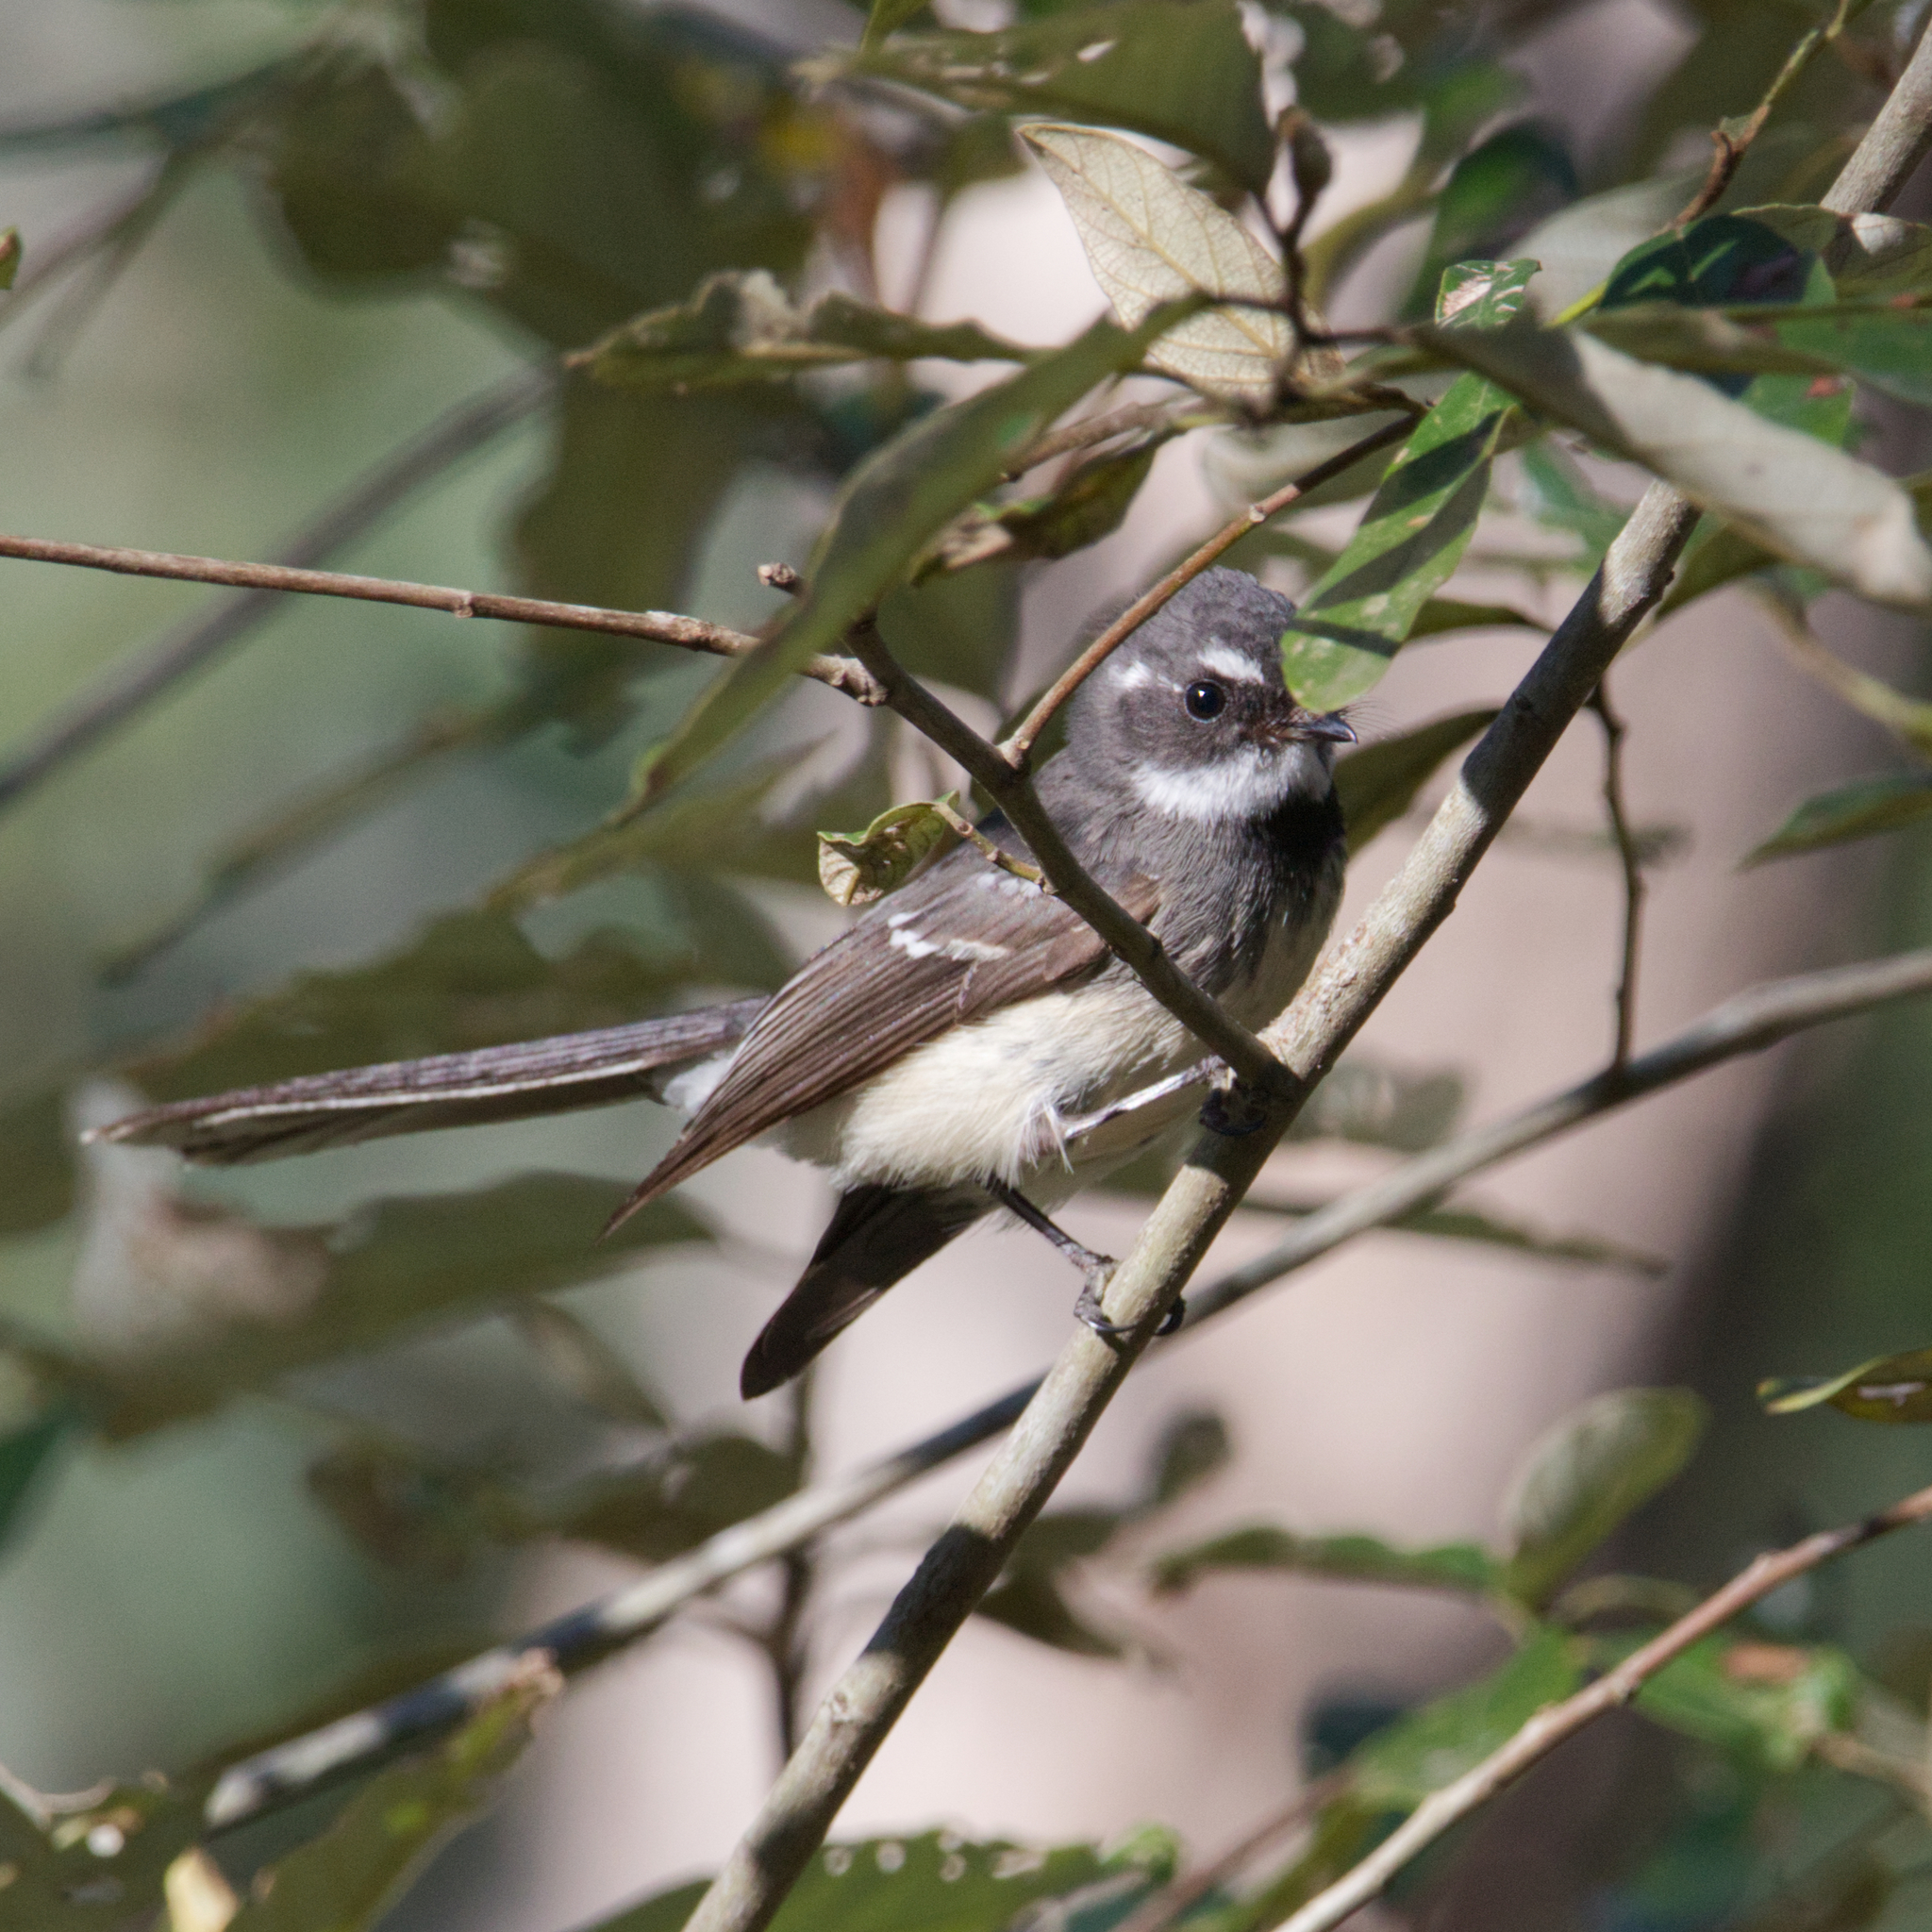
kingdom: Animalia
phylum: Chordata
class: Aves
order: Passeriformes
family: Rhipiduridae
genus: Rhipidura
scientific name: Rhipidura albiscapa
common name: Grey fantail
